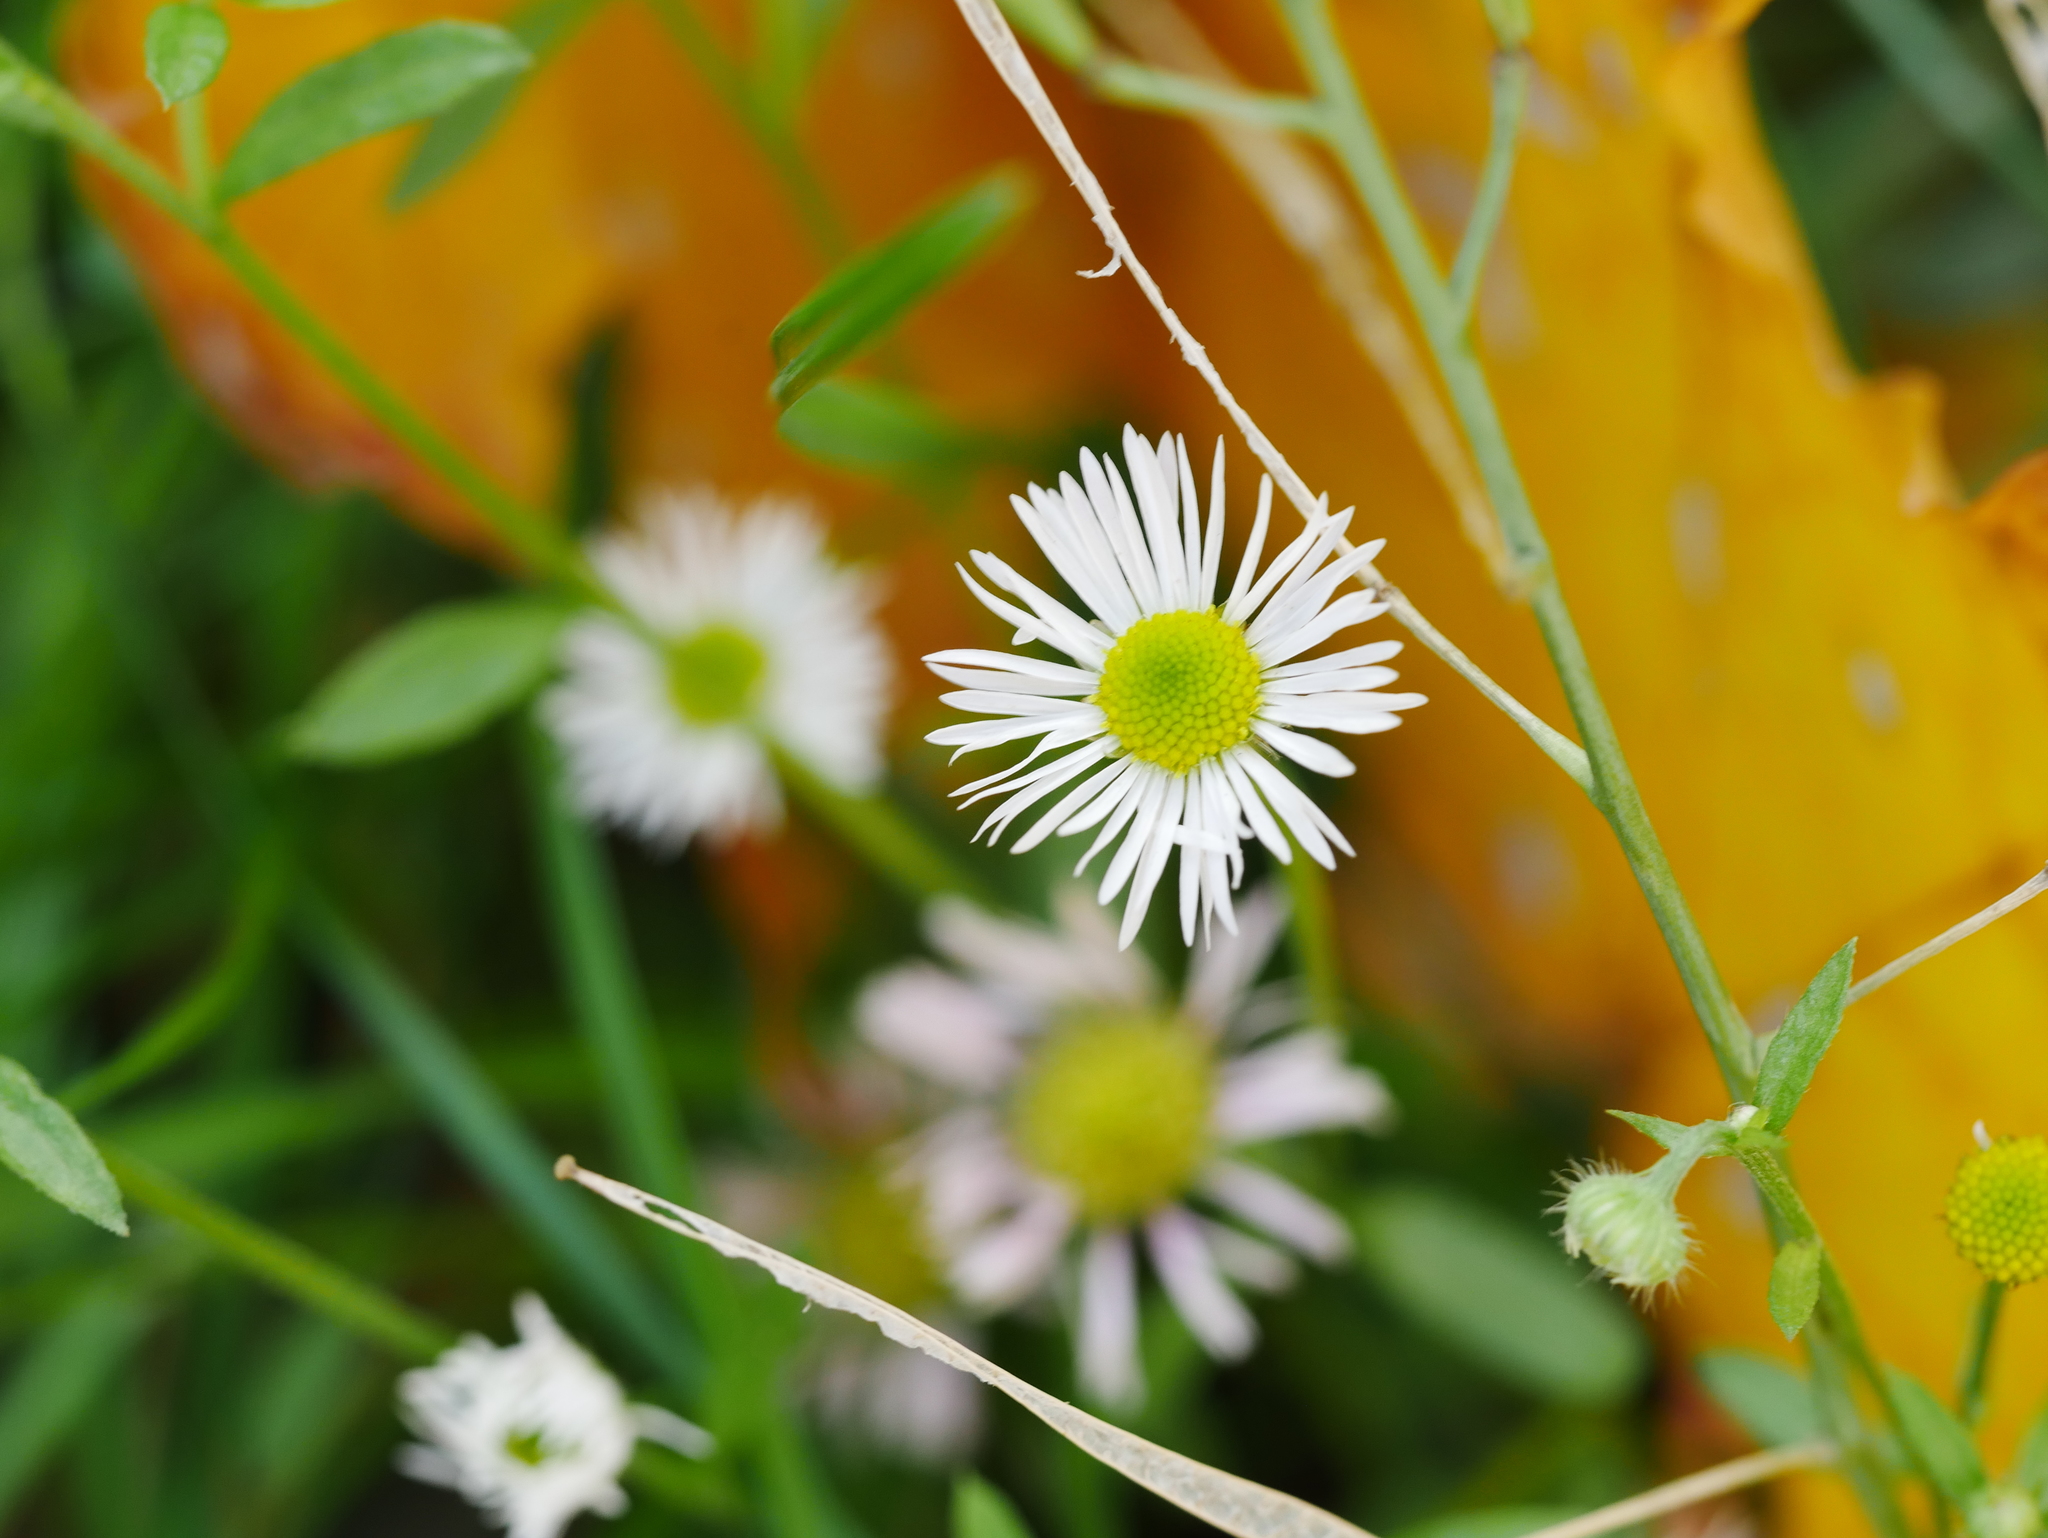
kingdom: Plantae
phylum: Tracheophyta
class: Magnoliopsida
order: Asterales
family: Asteraceae
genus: Erigeron
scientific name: Erigeron annuus
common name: Tall fleabane
